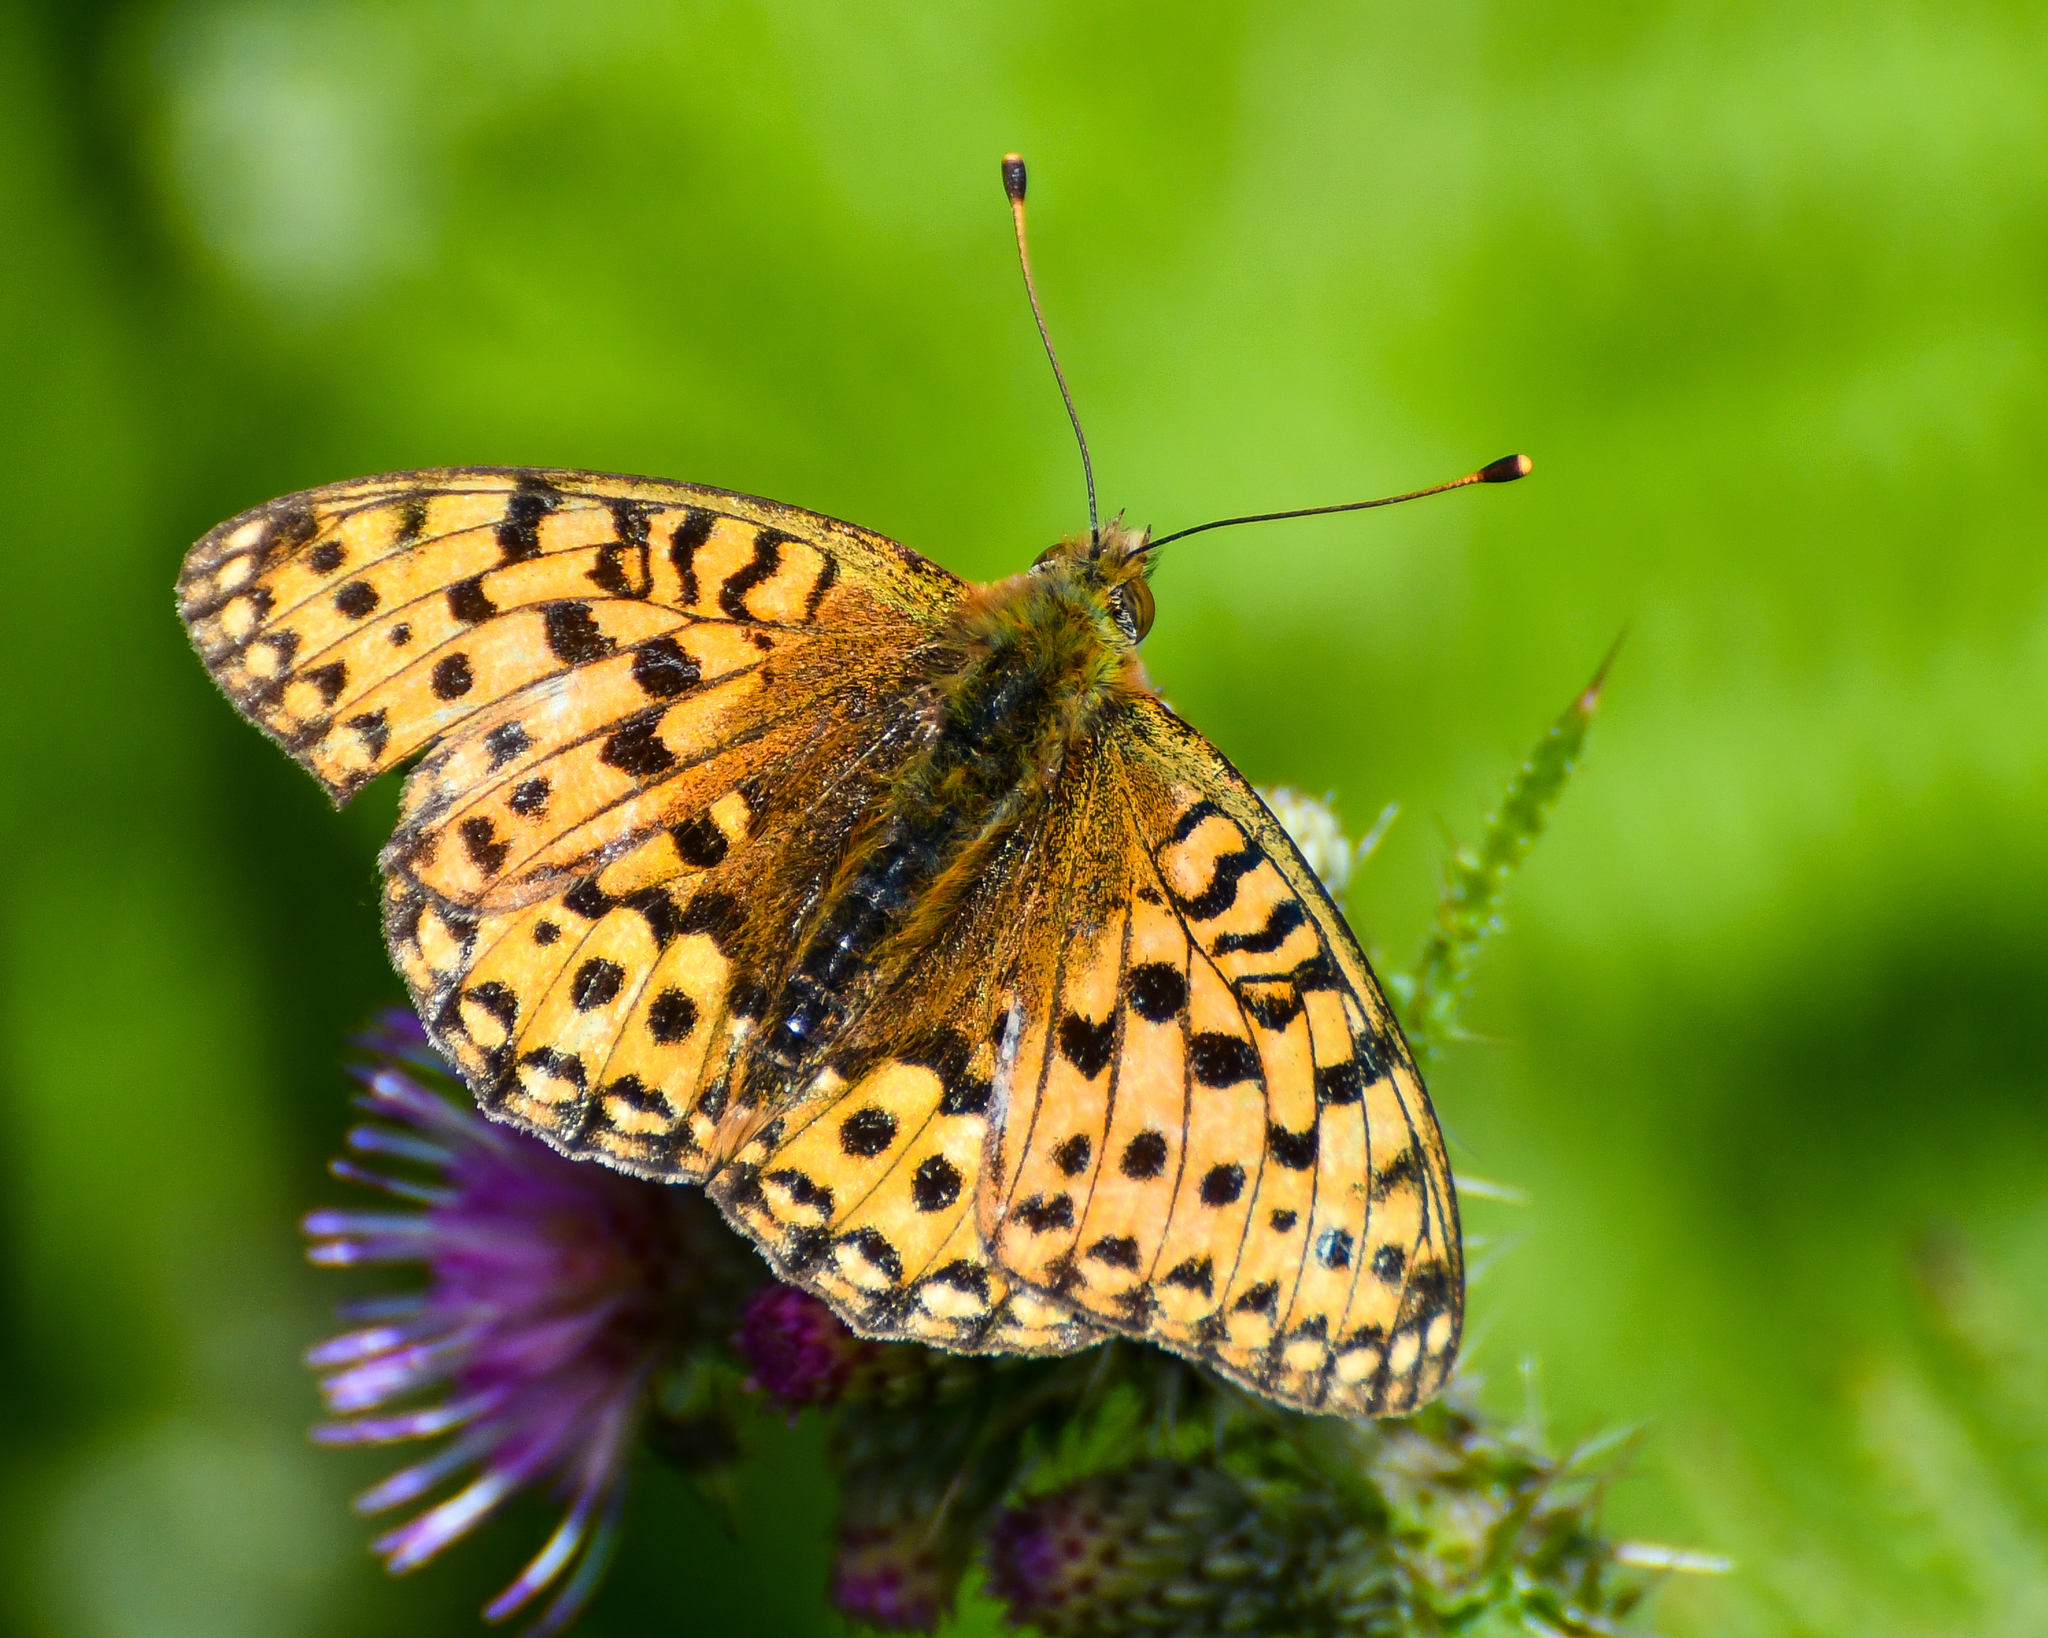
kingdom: Animalia
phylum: Arthropoda
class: Insecta
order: Lepidoptera
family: Nymphalidae
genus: Speyeria
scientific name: Speyeria aglaja
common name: Dark green fritillary
